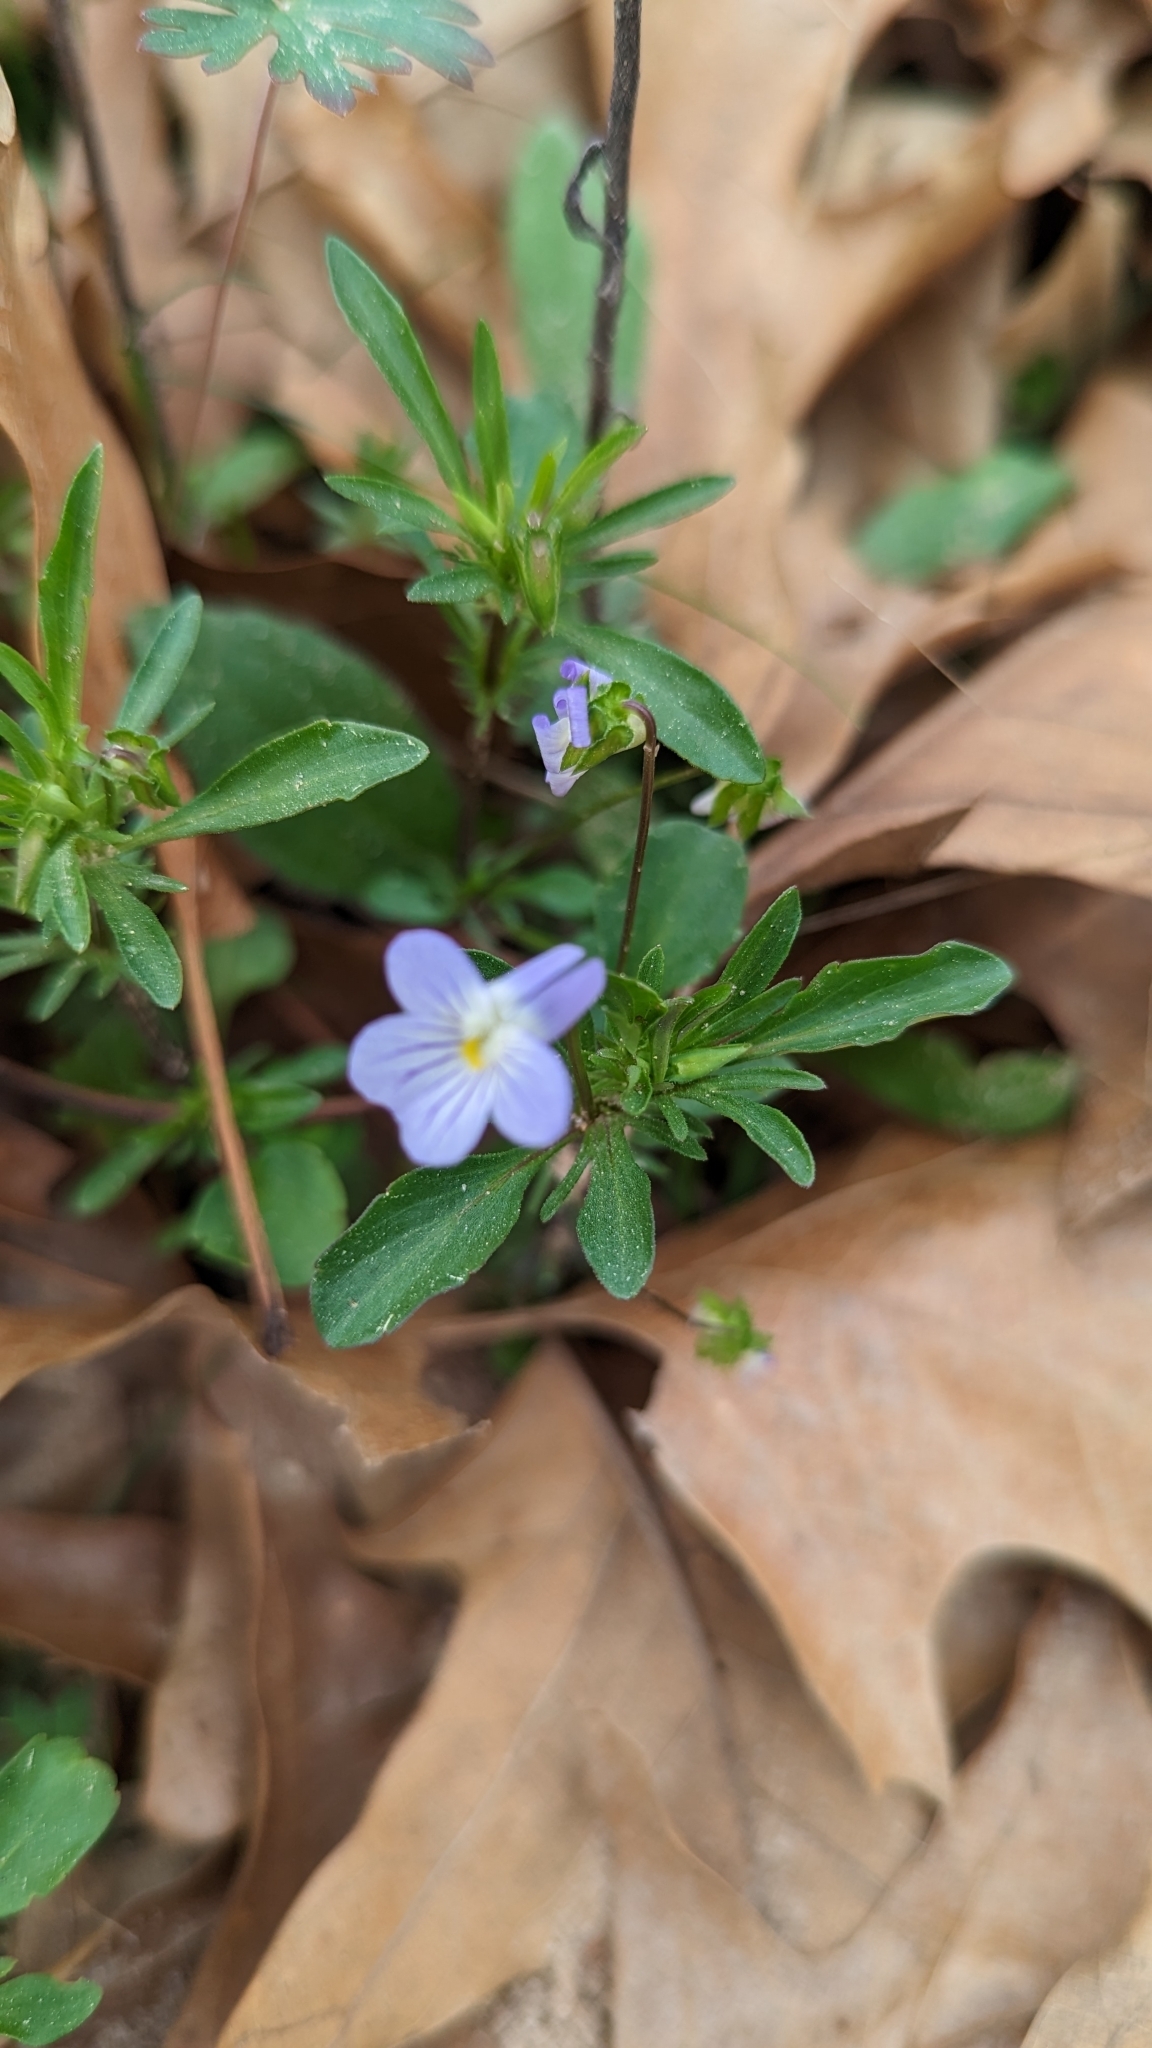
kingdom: Plantae
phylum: Tracheophyta
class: Magnoliopsida
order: Malpighiales
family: Violaceae
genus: Viola
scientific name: Viola rafinesquei
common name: American field pansy
